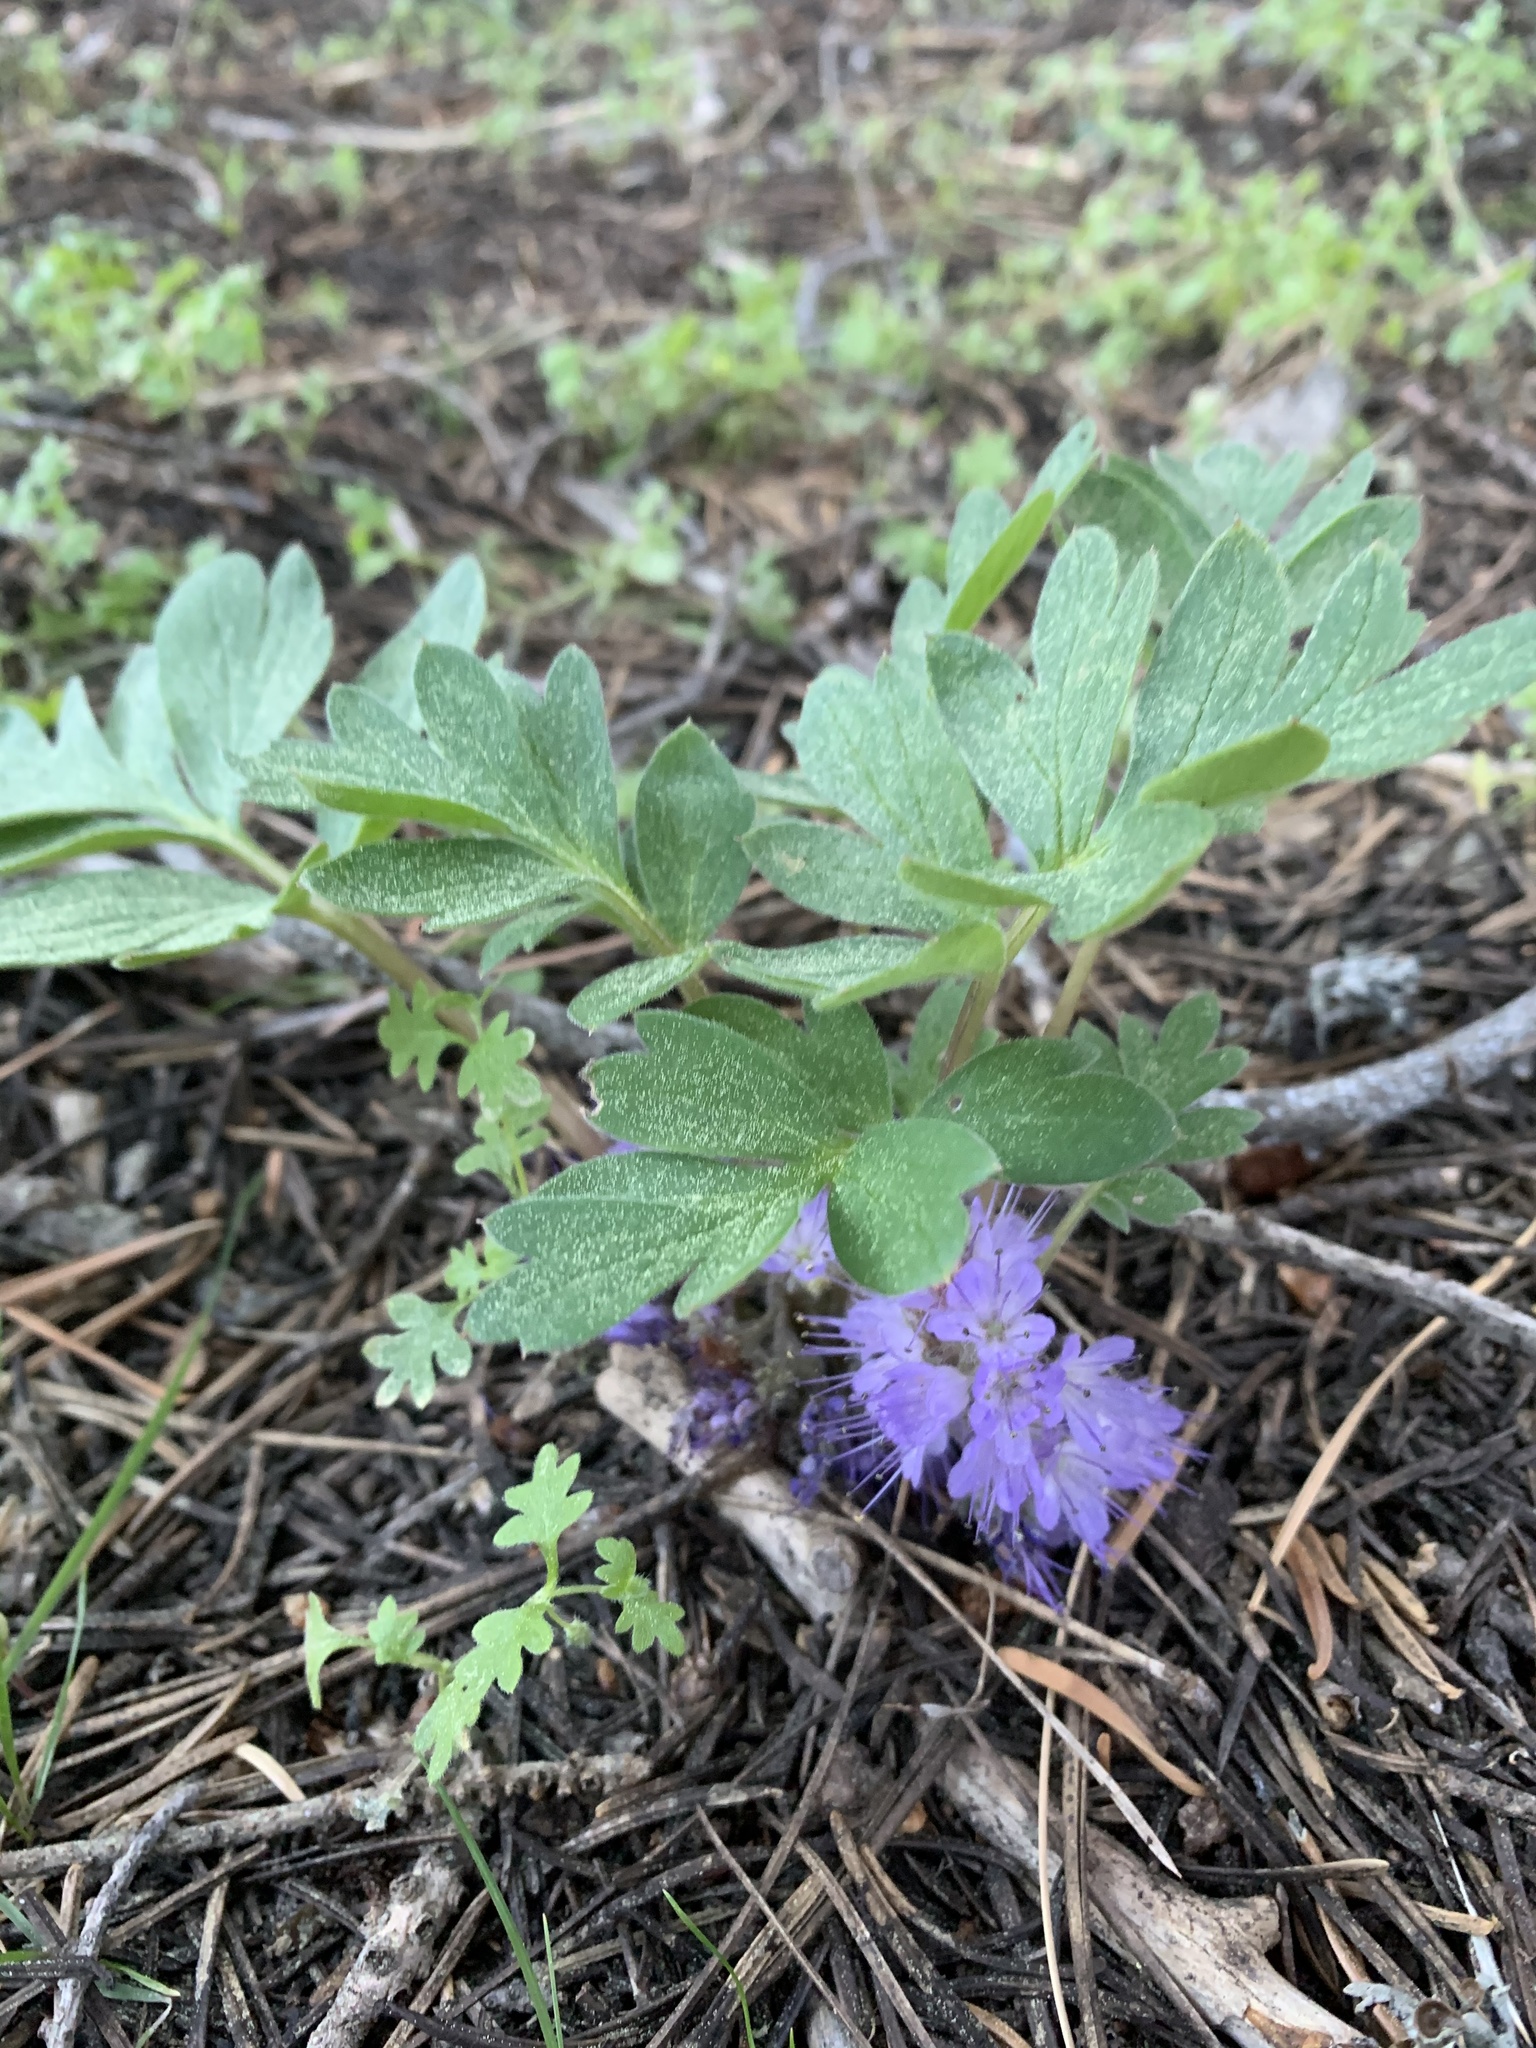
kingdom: Plantae
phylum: Tracheophyta
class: Magnoliopsida
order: Boraginales
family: Hydrophyllaceae
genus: Hydrophyllum
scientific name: Hydrophyllum alpestre
